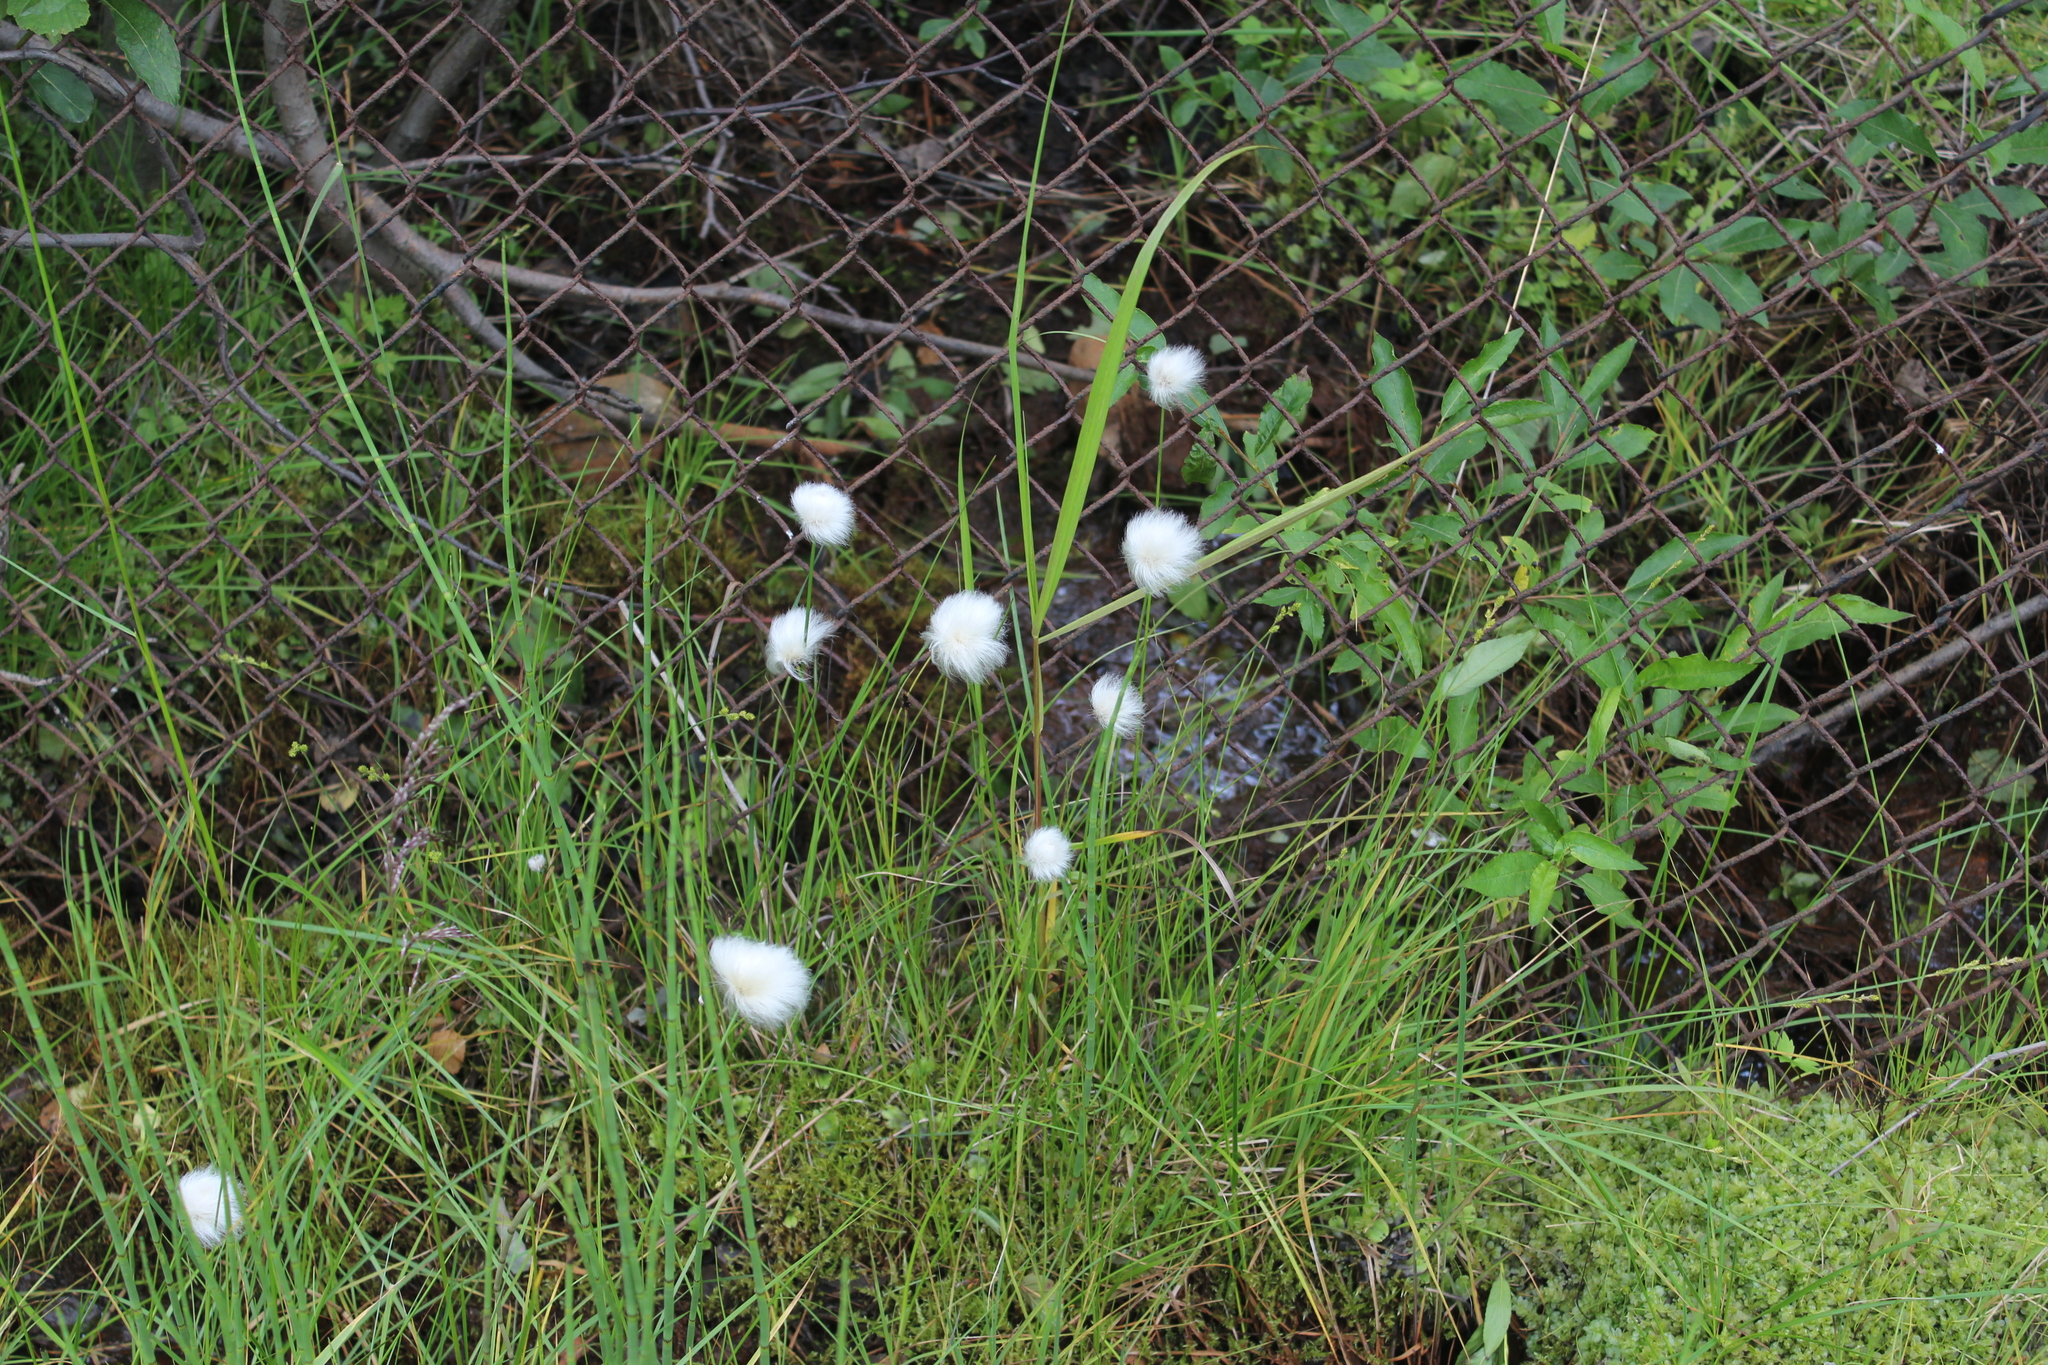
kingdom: Plantae
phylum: Tracheophyta
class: Liliopsida
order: Poales
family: Cyperaceae
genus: Eriophorum
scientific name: Eriophorum scheuchzeri
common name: Scheuchzer's cottongrass
